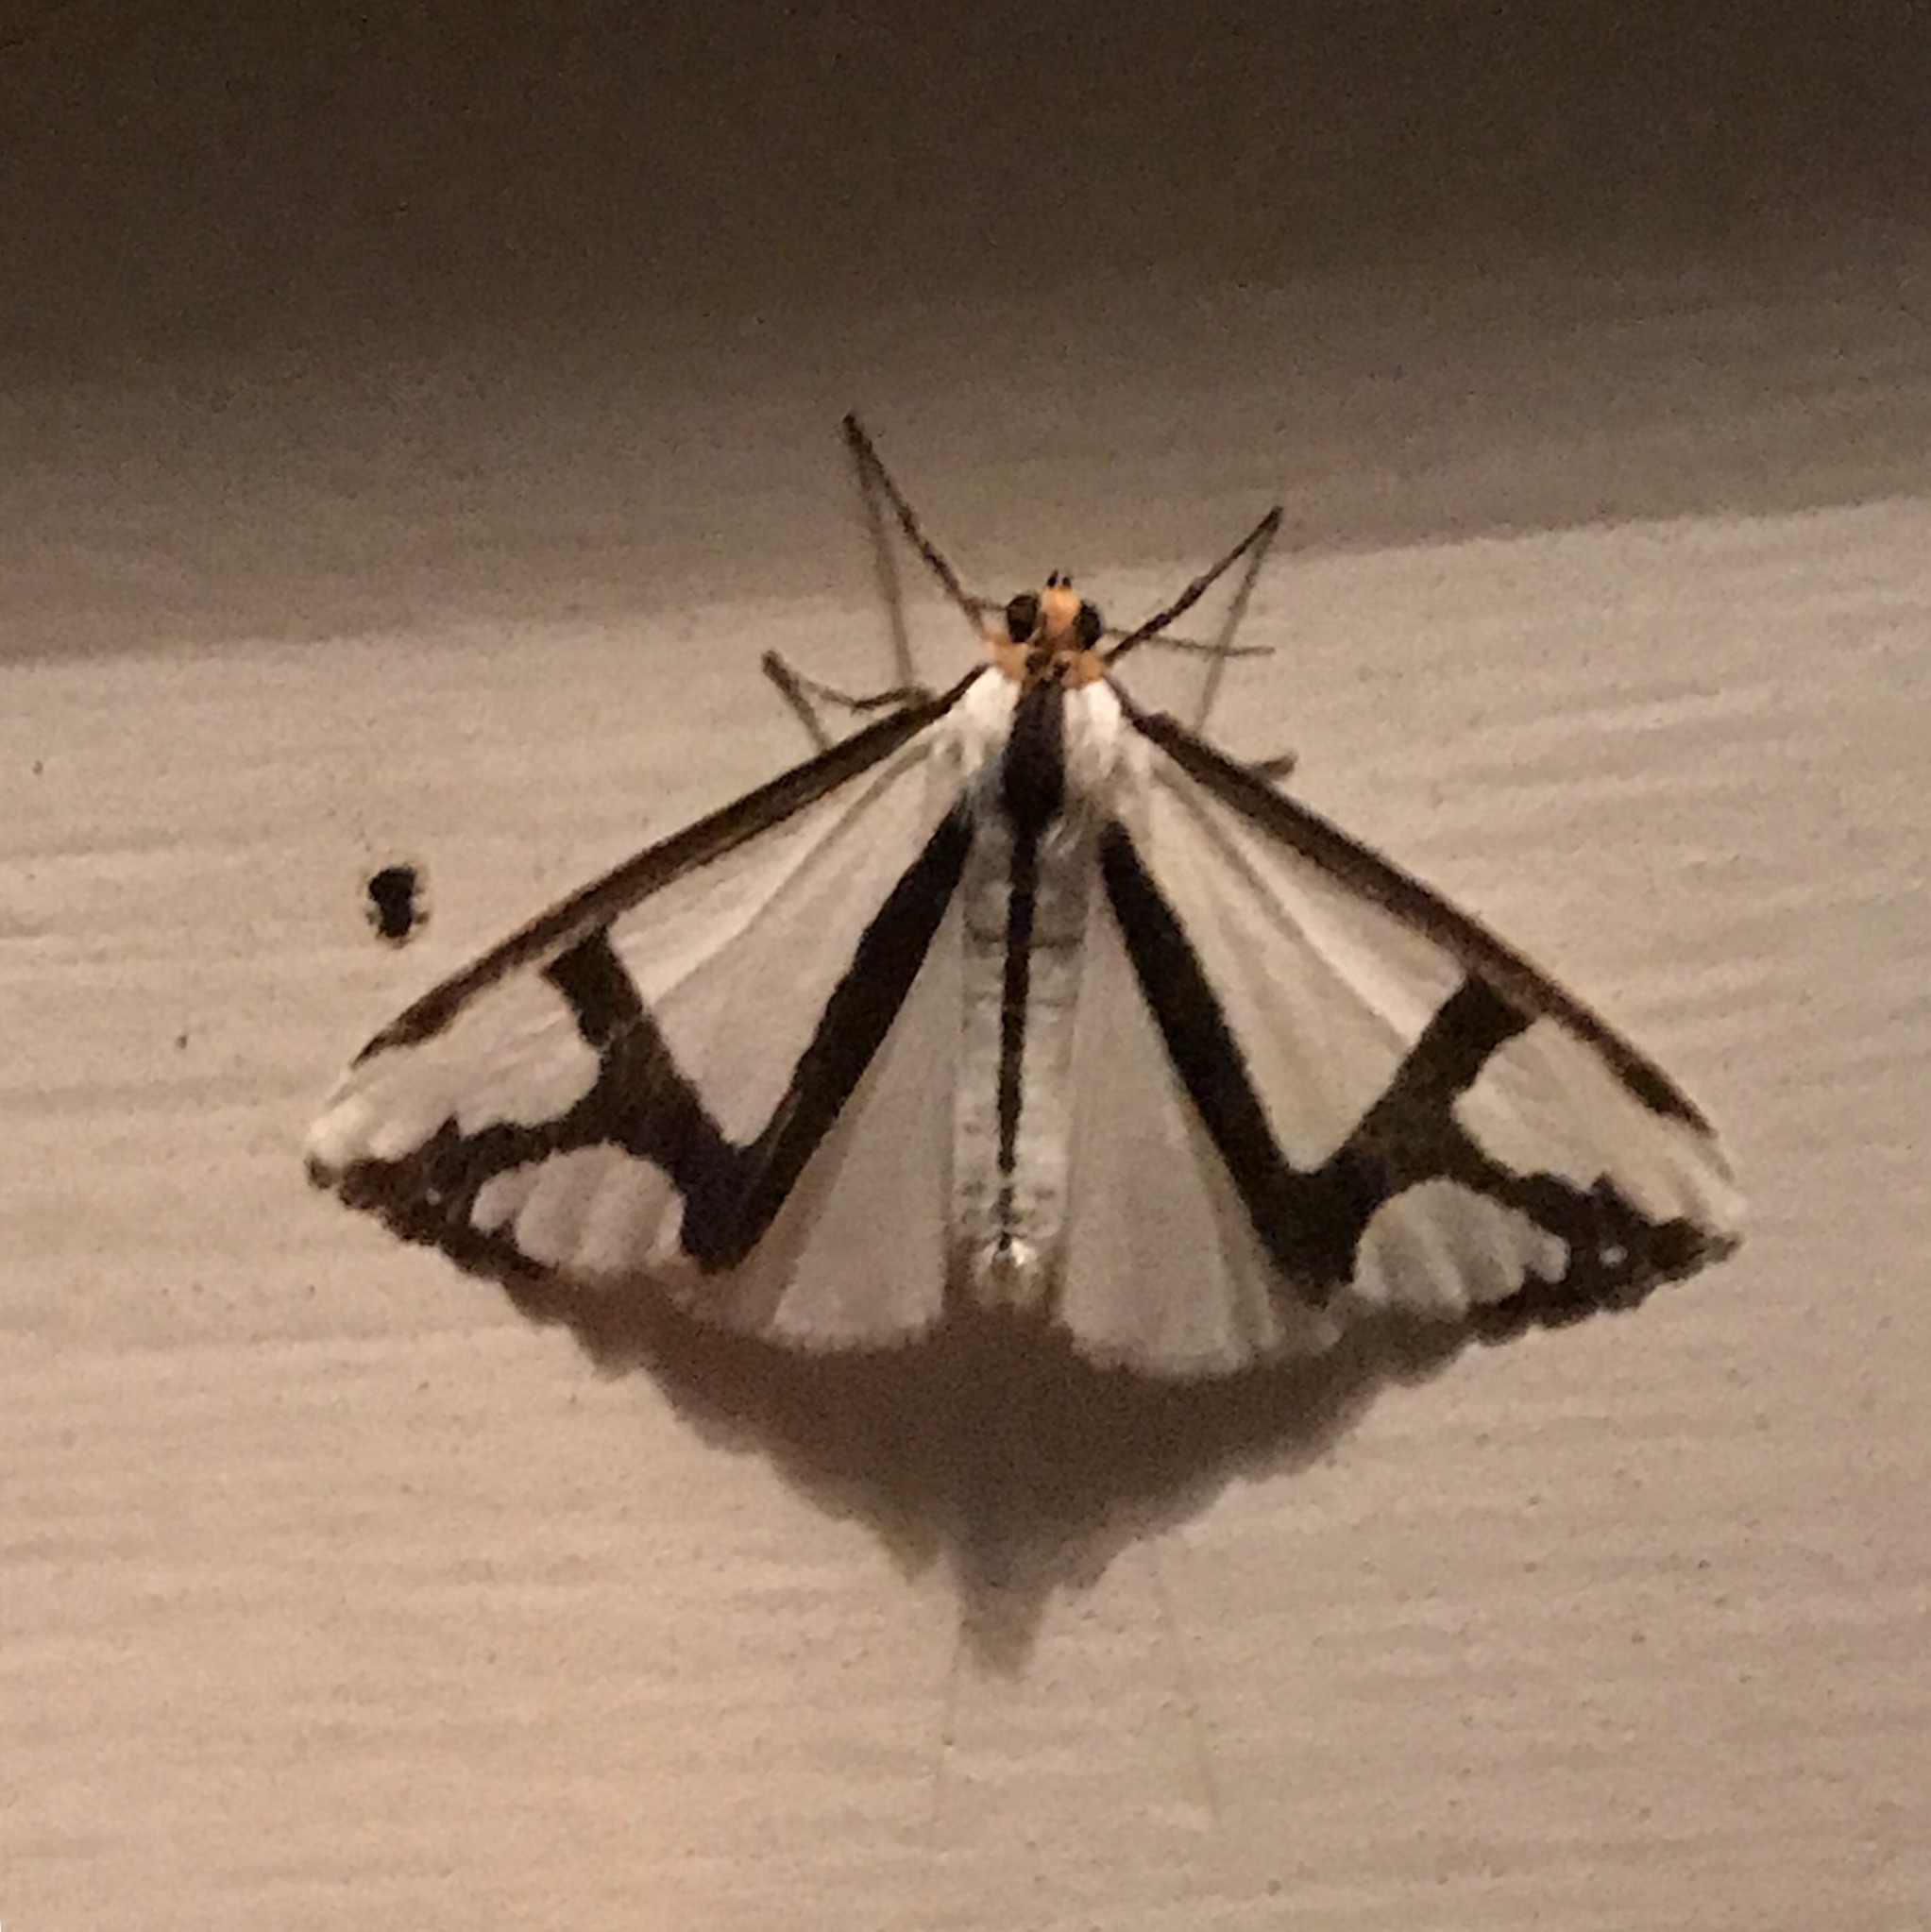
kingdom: Animalia
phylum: Arthropoda
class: Insecta
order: Lepidoptera
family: Erebidae
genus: Haploa
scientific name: Haploa contigua
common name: Neighbor moth
